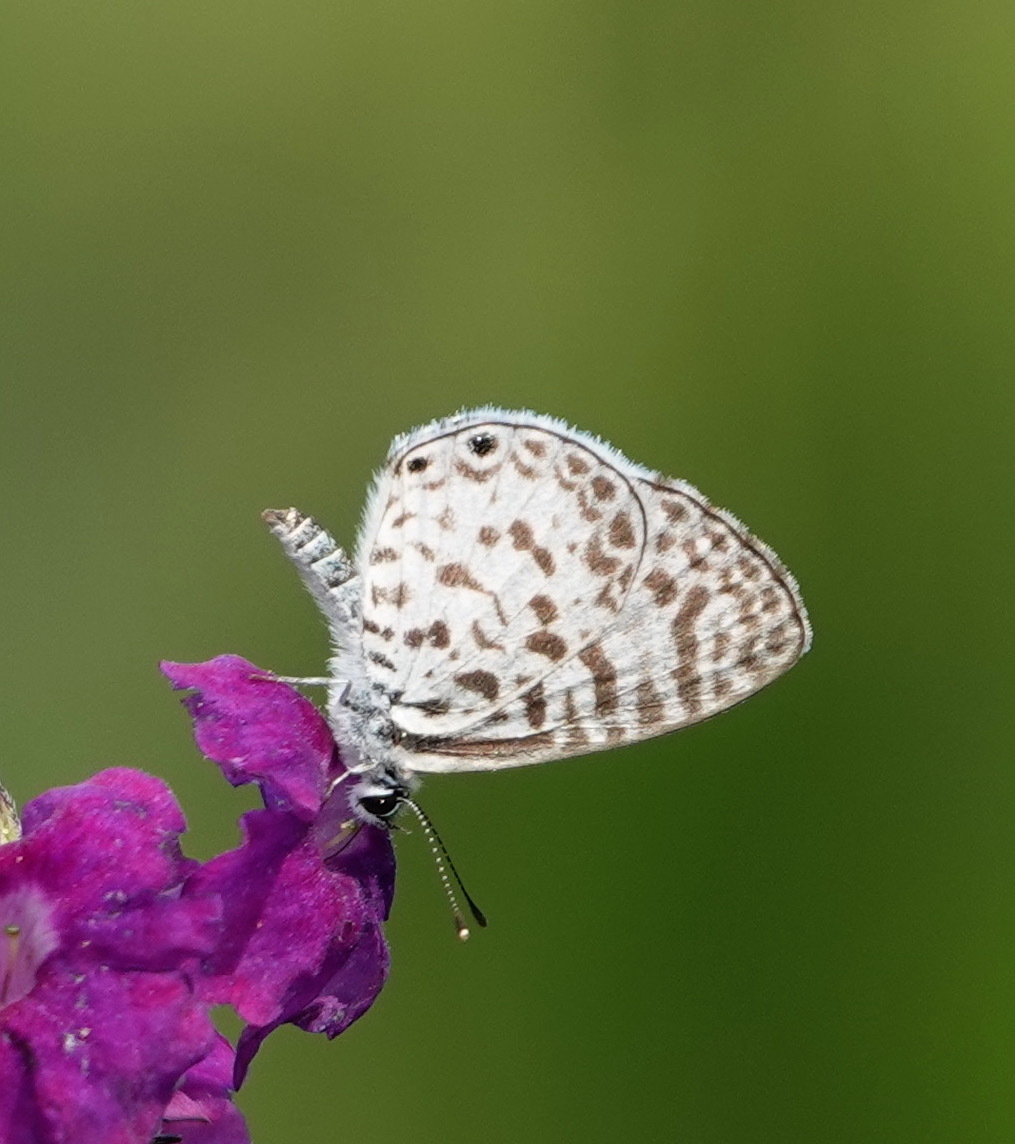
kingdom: Animalia
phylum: Arthropoda
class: Insecta
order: Lepidoptera
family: Lycaenidae
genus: Leptotes
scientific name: Leptotes cassius
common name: Cassius blue
